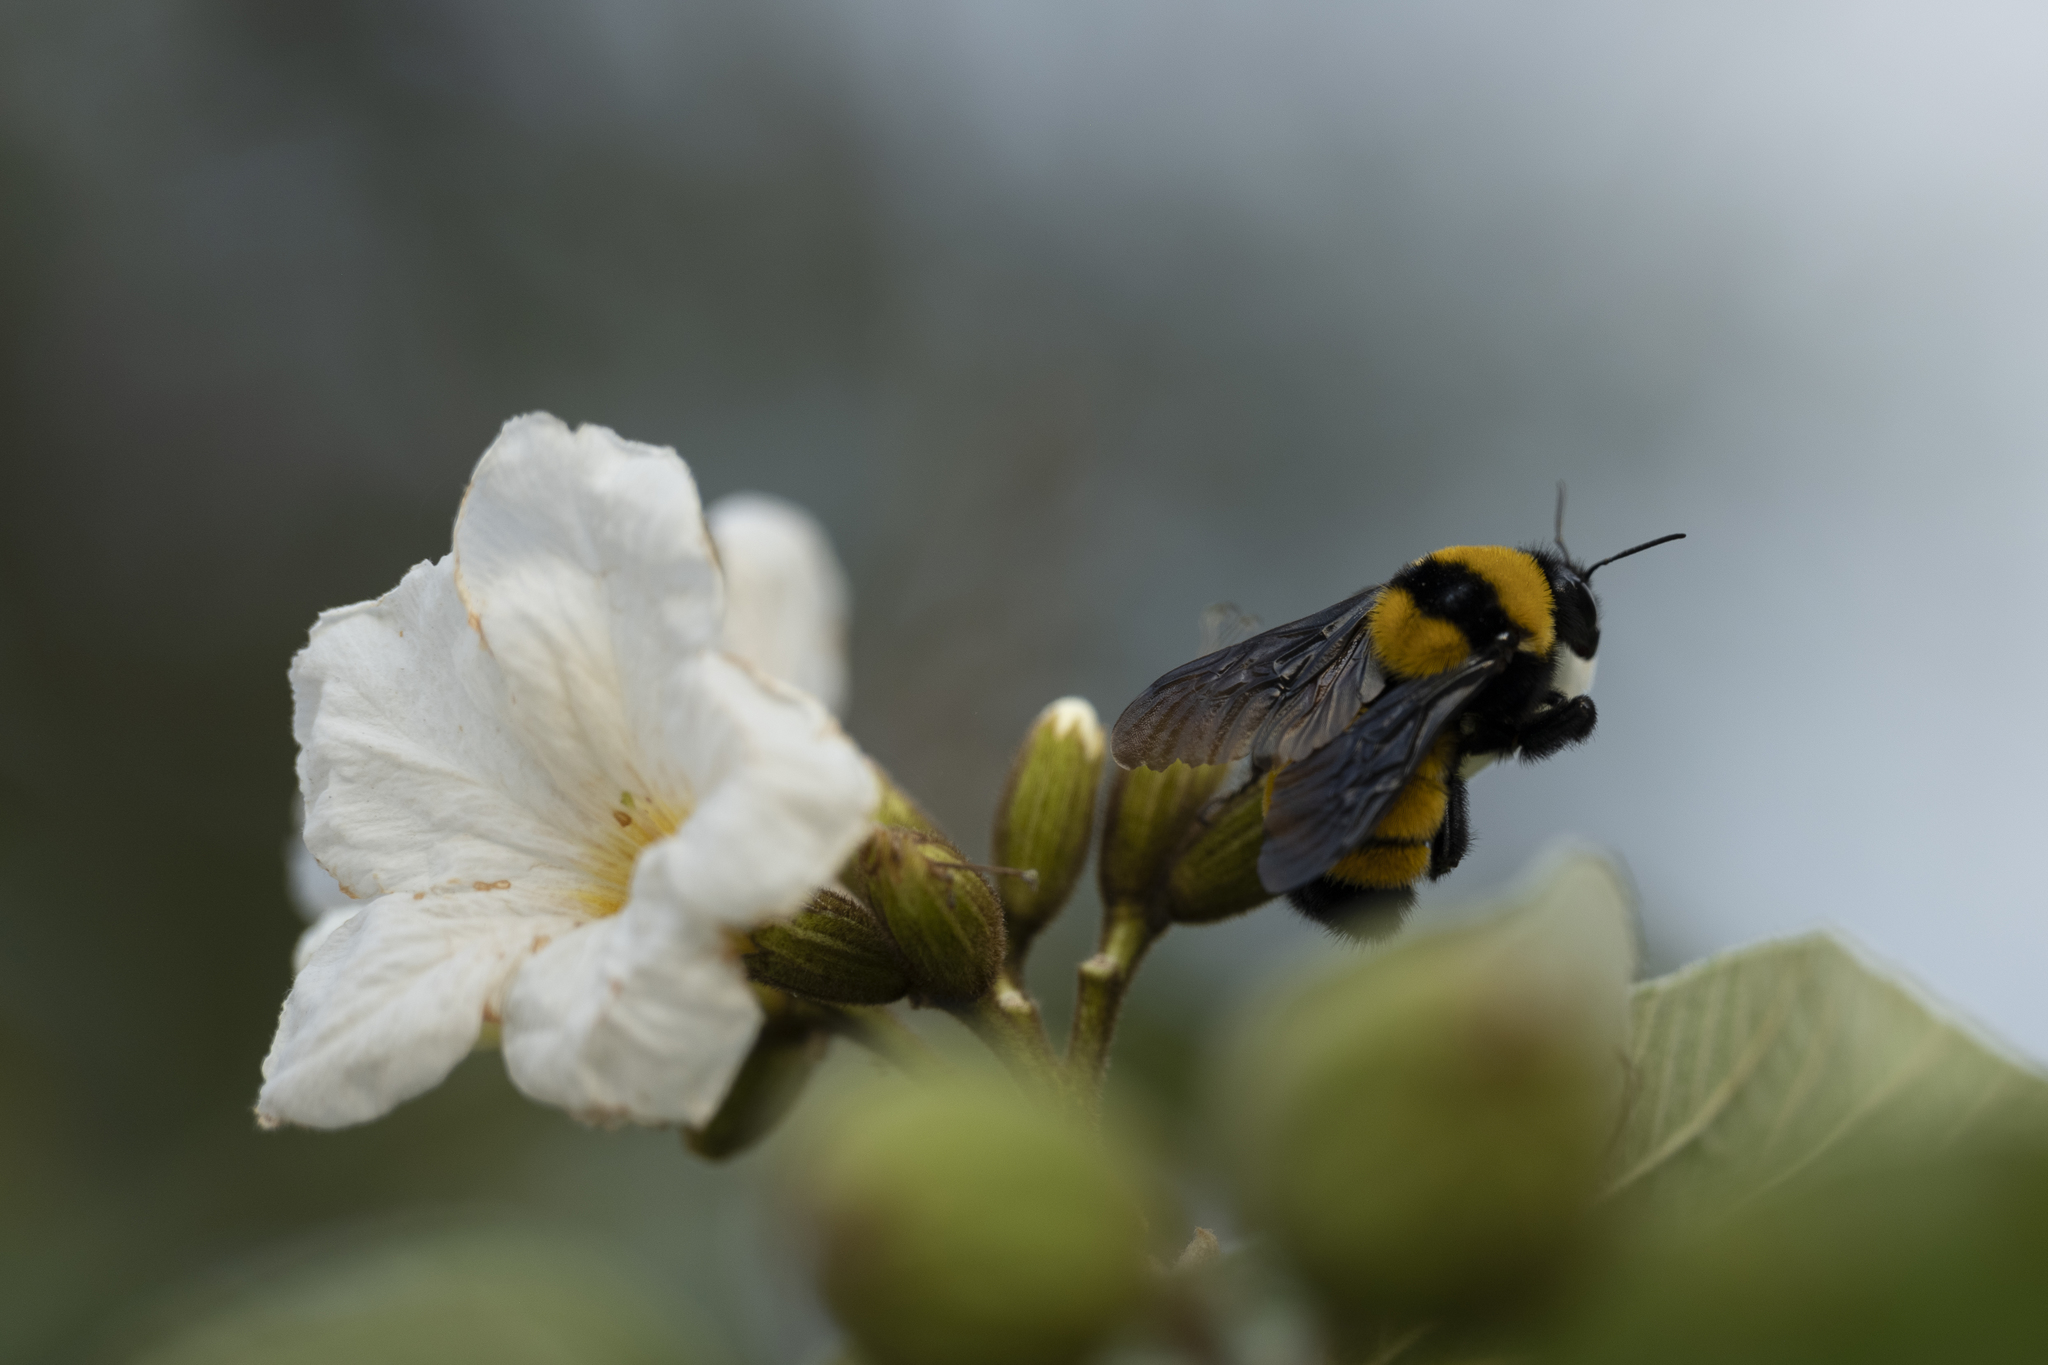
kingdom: Animalia
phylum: Arthropoda
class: Insecta
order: Hymenoptera
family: Apidae
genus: Bombus
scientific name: Bombus sonorus
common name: Sonoran bumble bee
